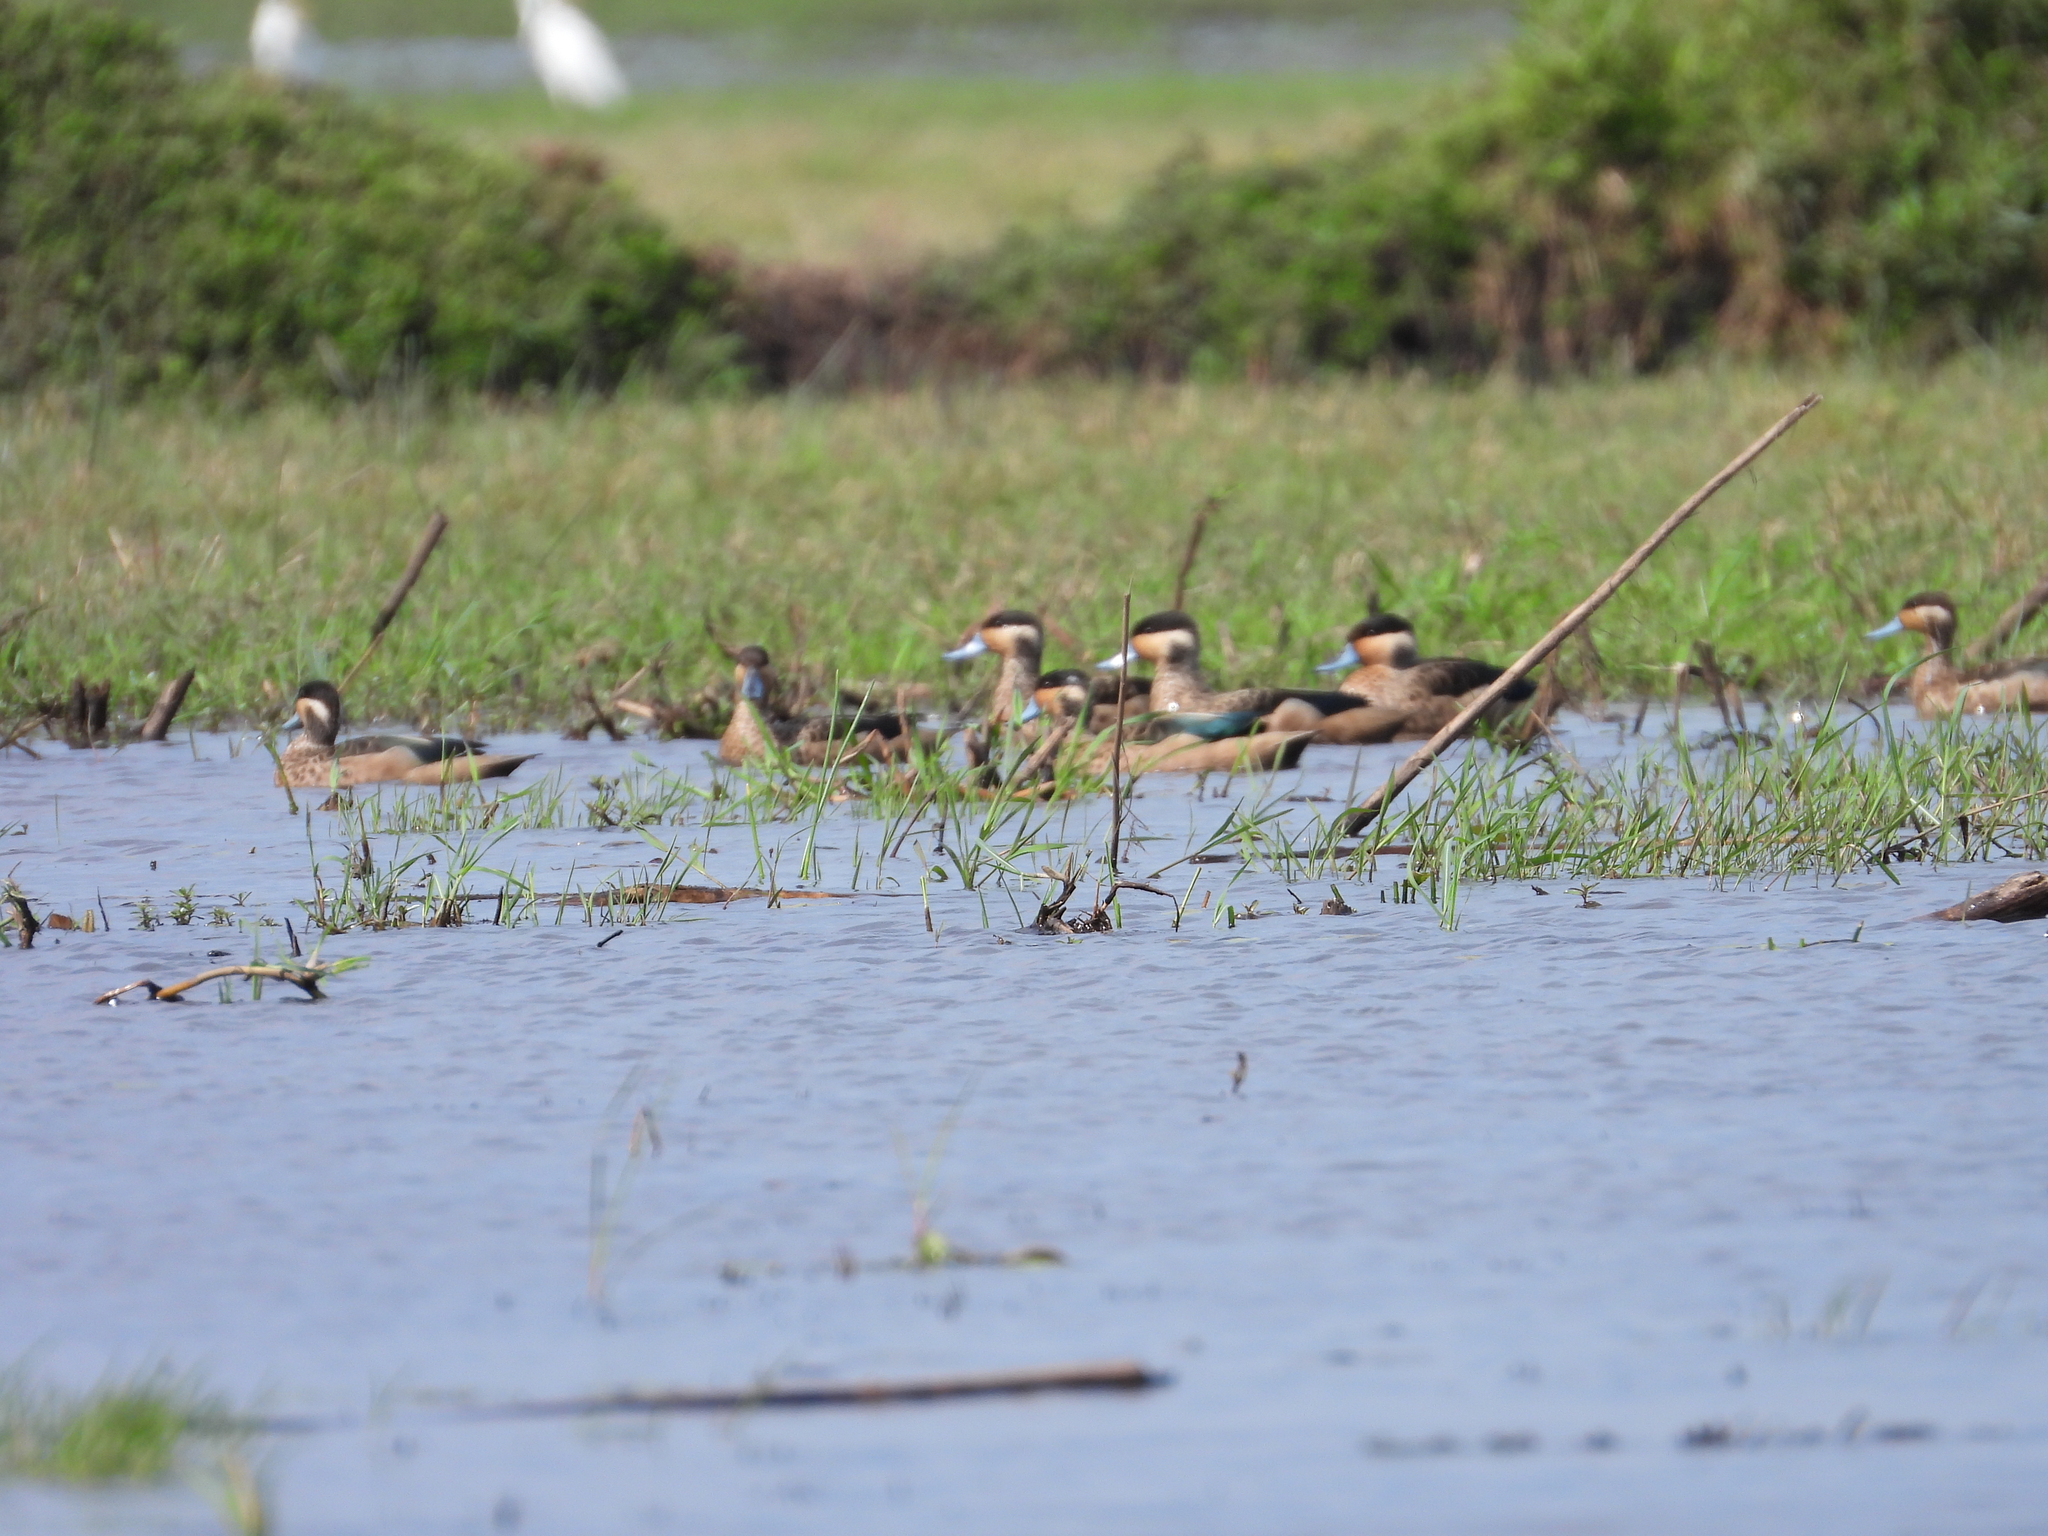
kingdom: Animalia
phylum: Chordata
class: Aves
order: Anseriformes
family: Anatidae
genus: Spatula
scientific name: Spatula hottentota
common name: Blue-billed teal
